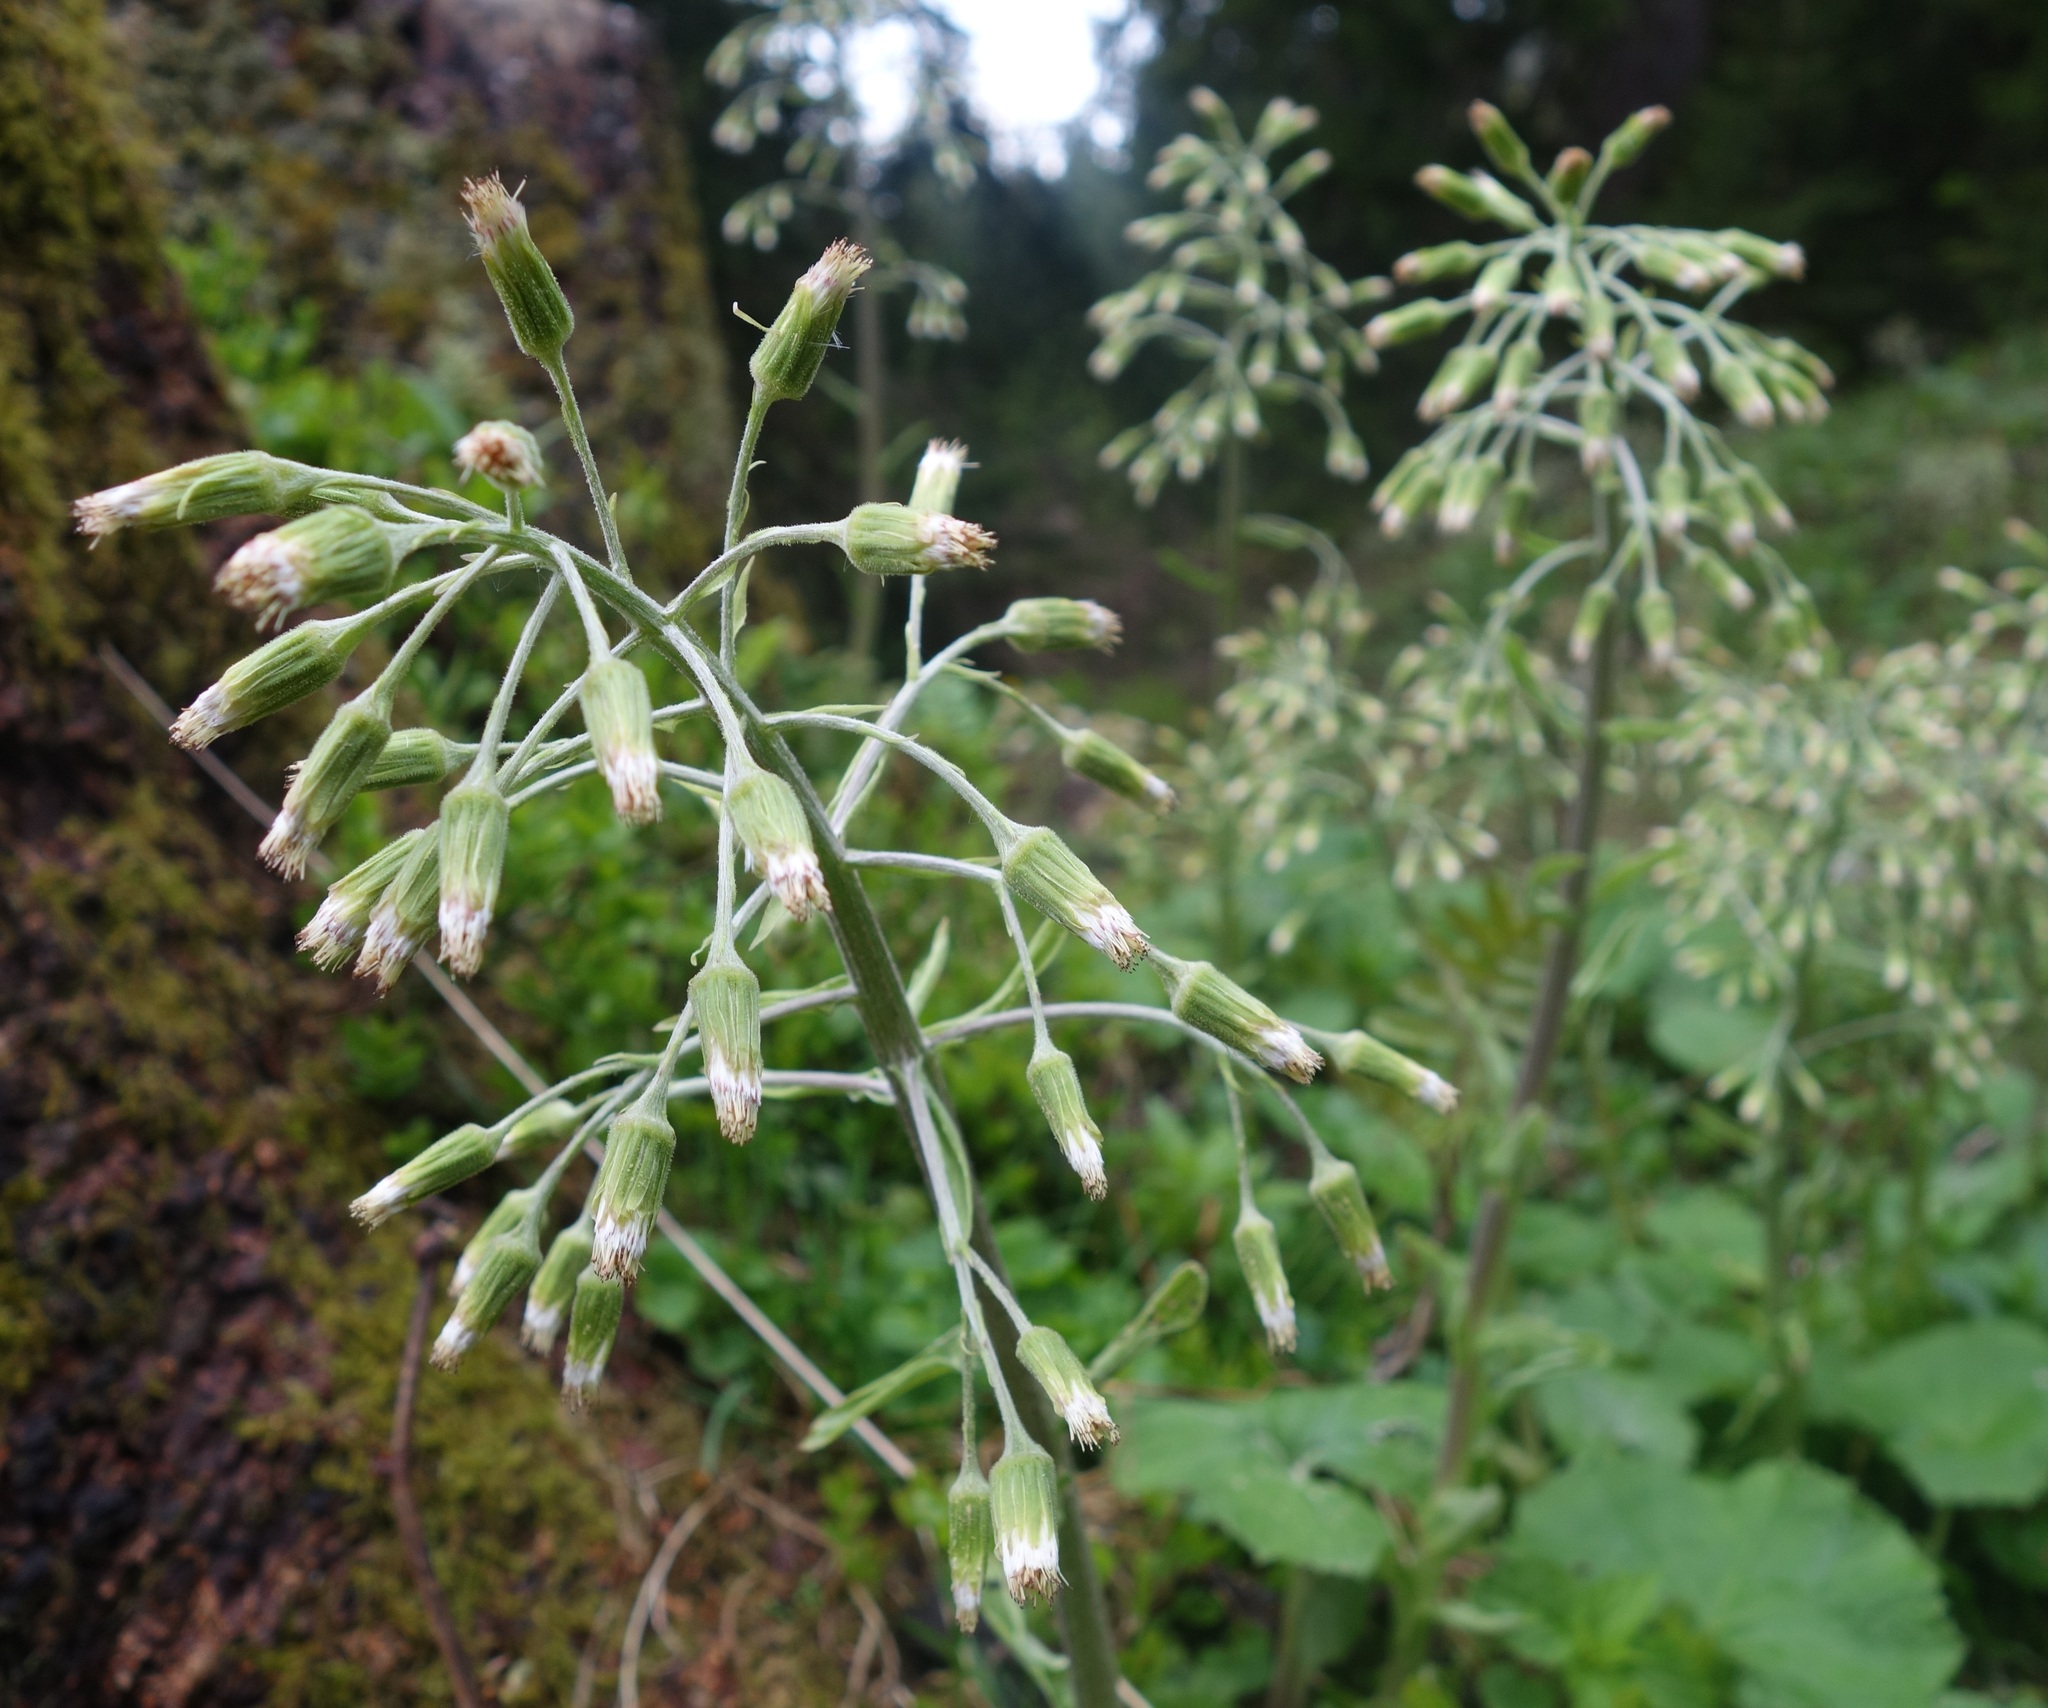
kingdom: Plantae
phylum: Tracheophyta
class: Magnoliopsida
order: Asterales
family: Asteraceae
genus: Petasites
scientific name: Petasites albus
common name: White butterbur
